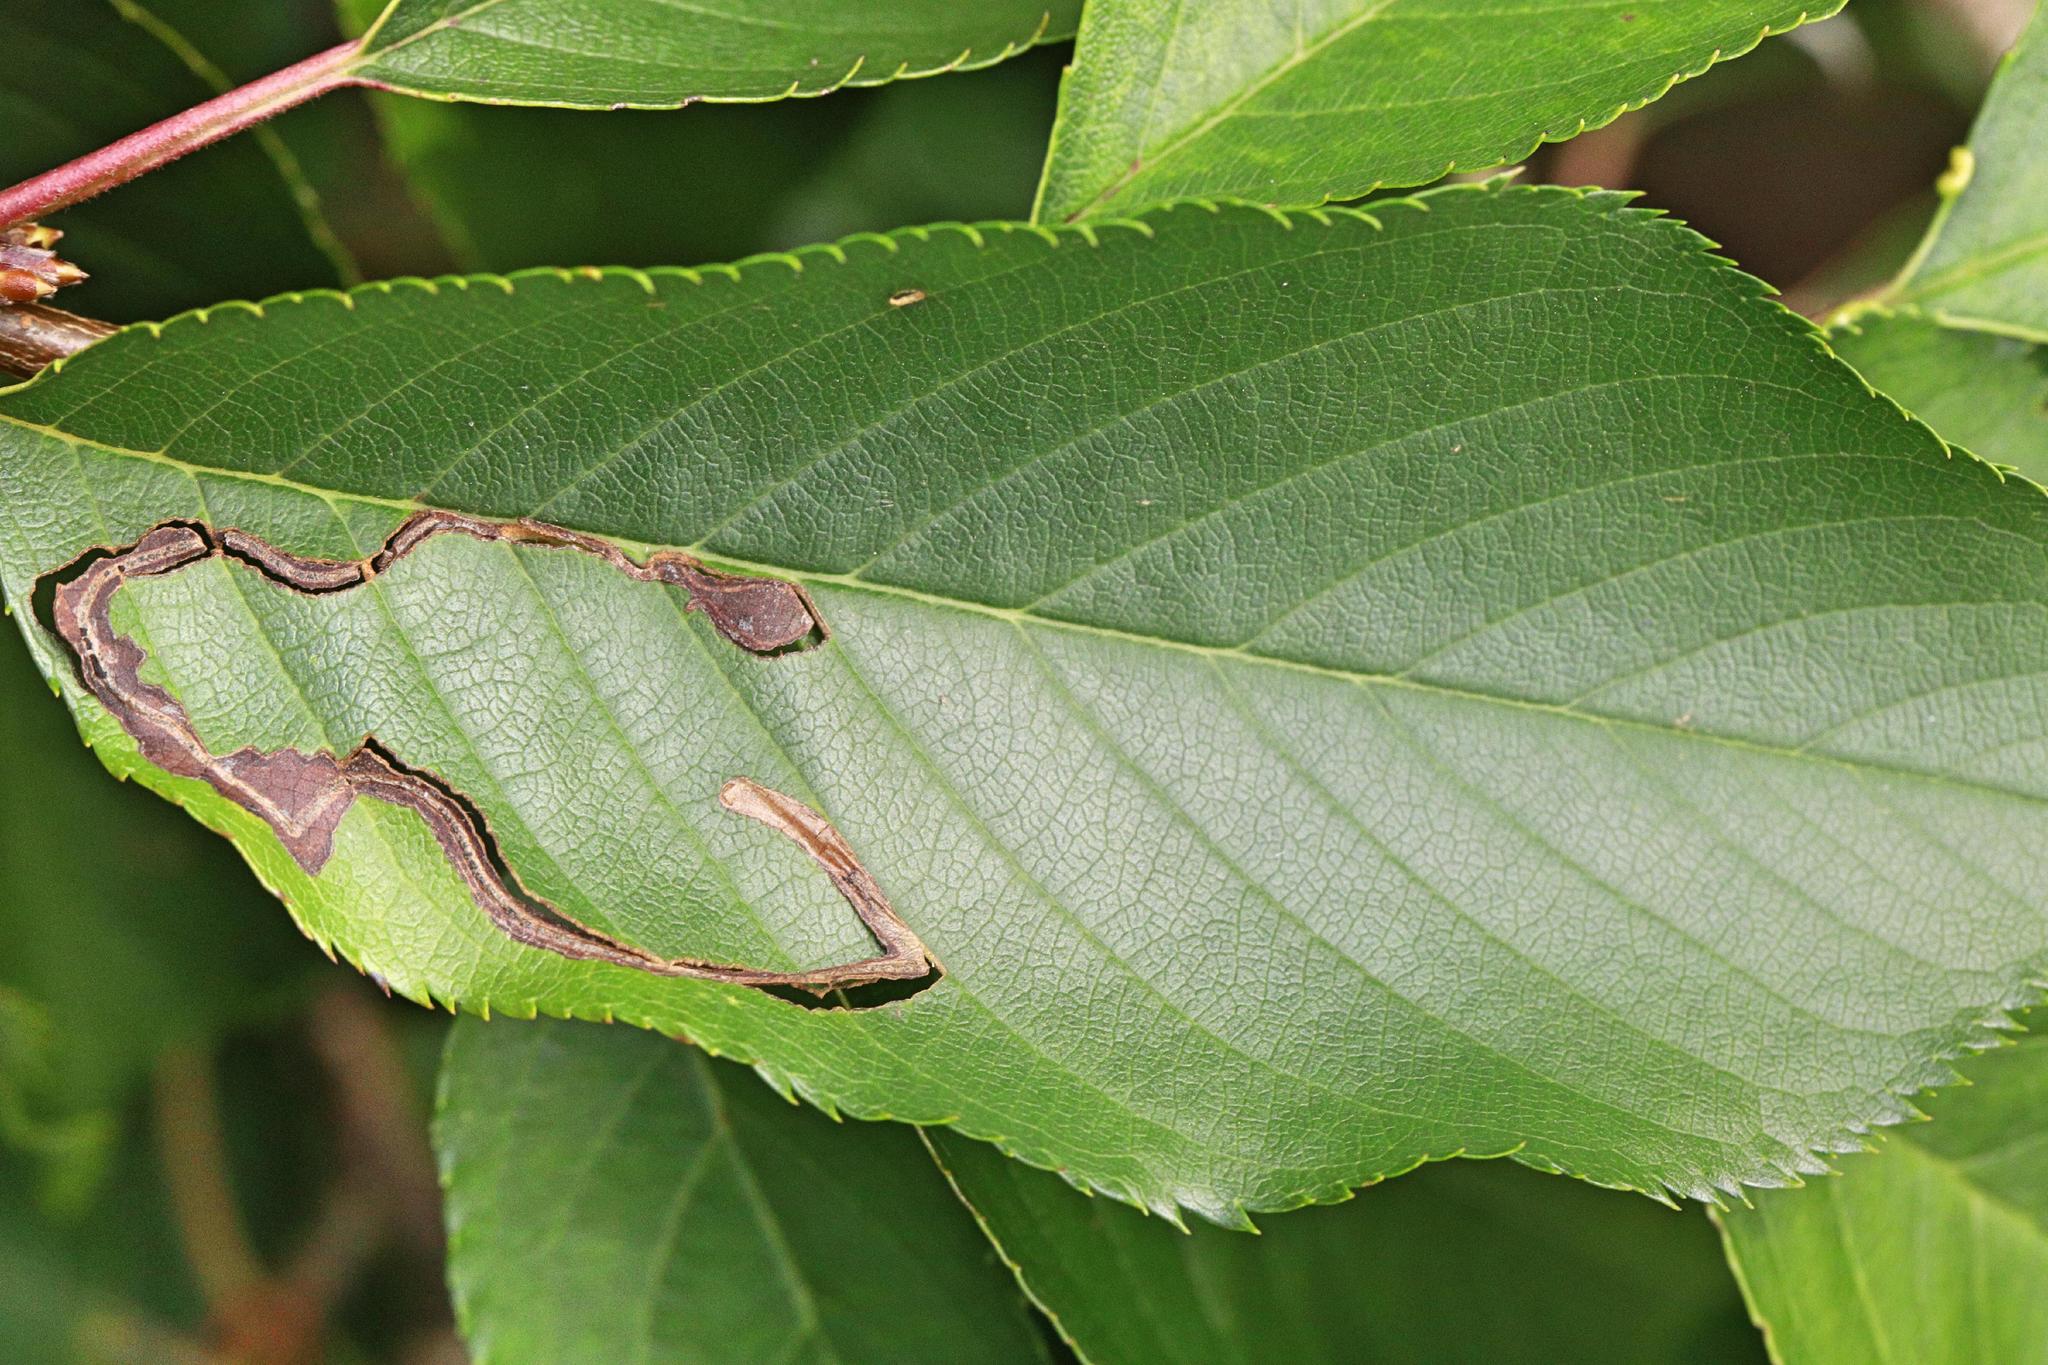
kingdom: Animalia
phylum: Arthropoda
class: Insecta
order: Lepidoptera
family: Lyonetiidae
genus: Lyonetia
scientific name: Lyonetia clerkella
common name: Apple leaf miner
